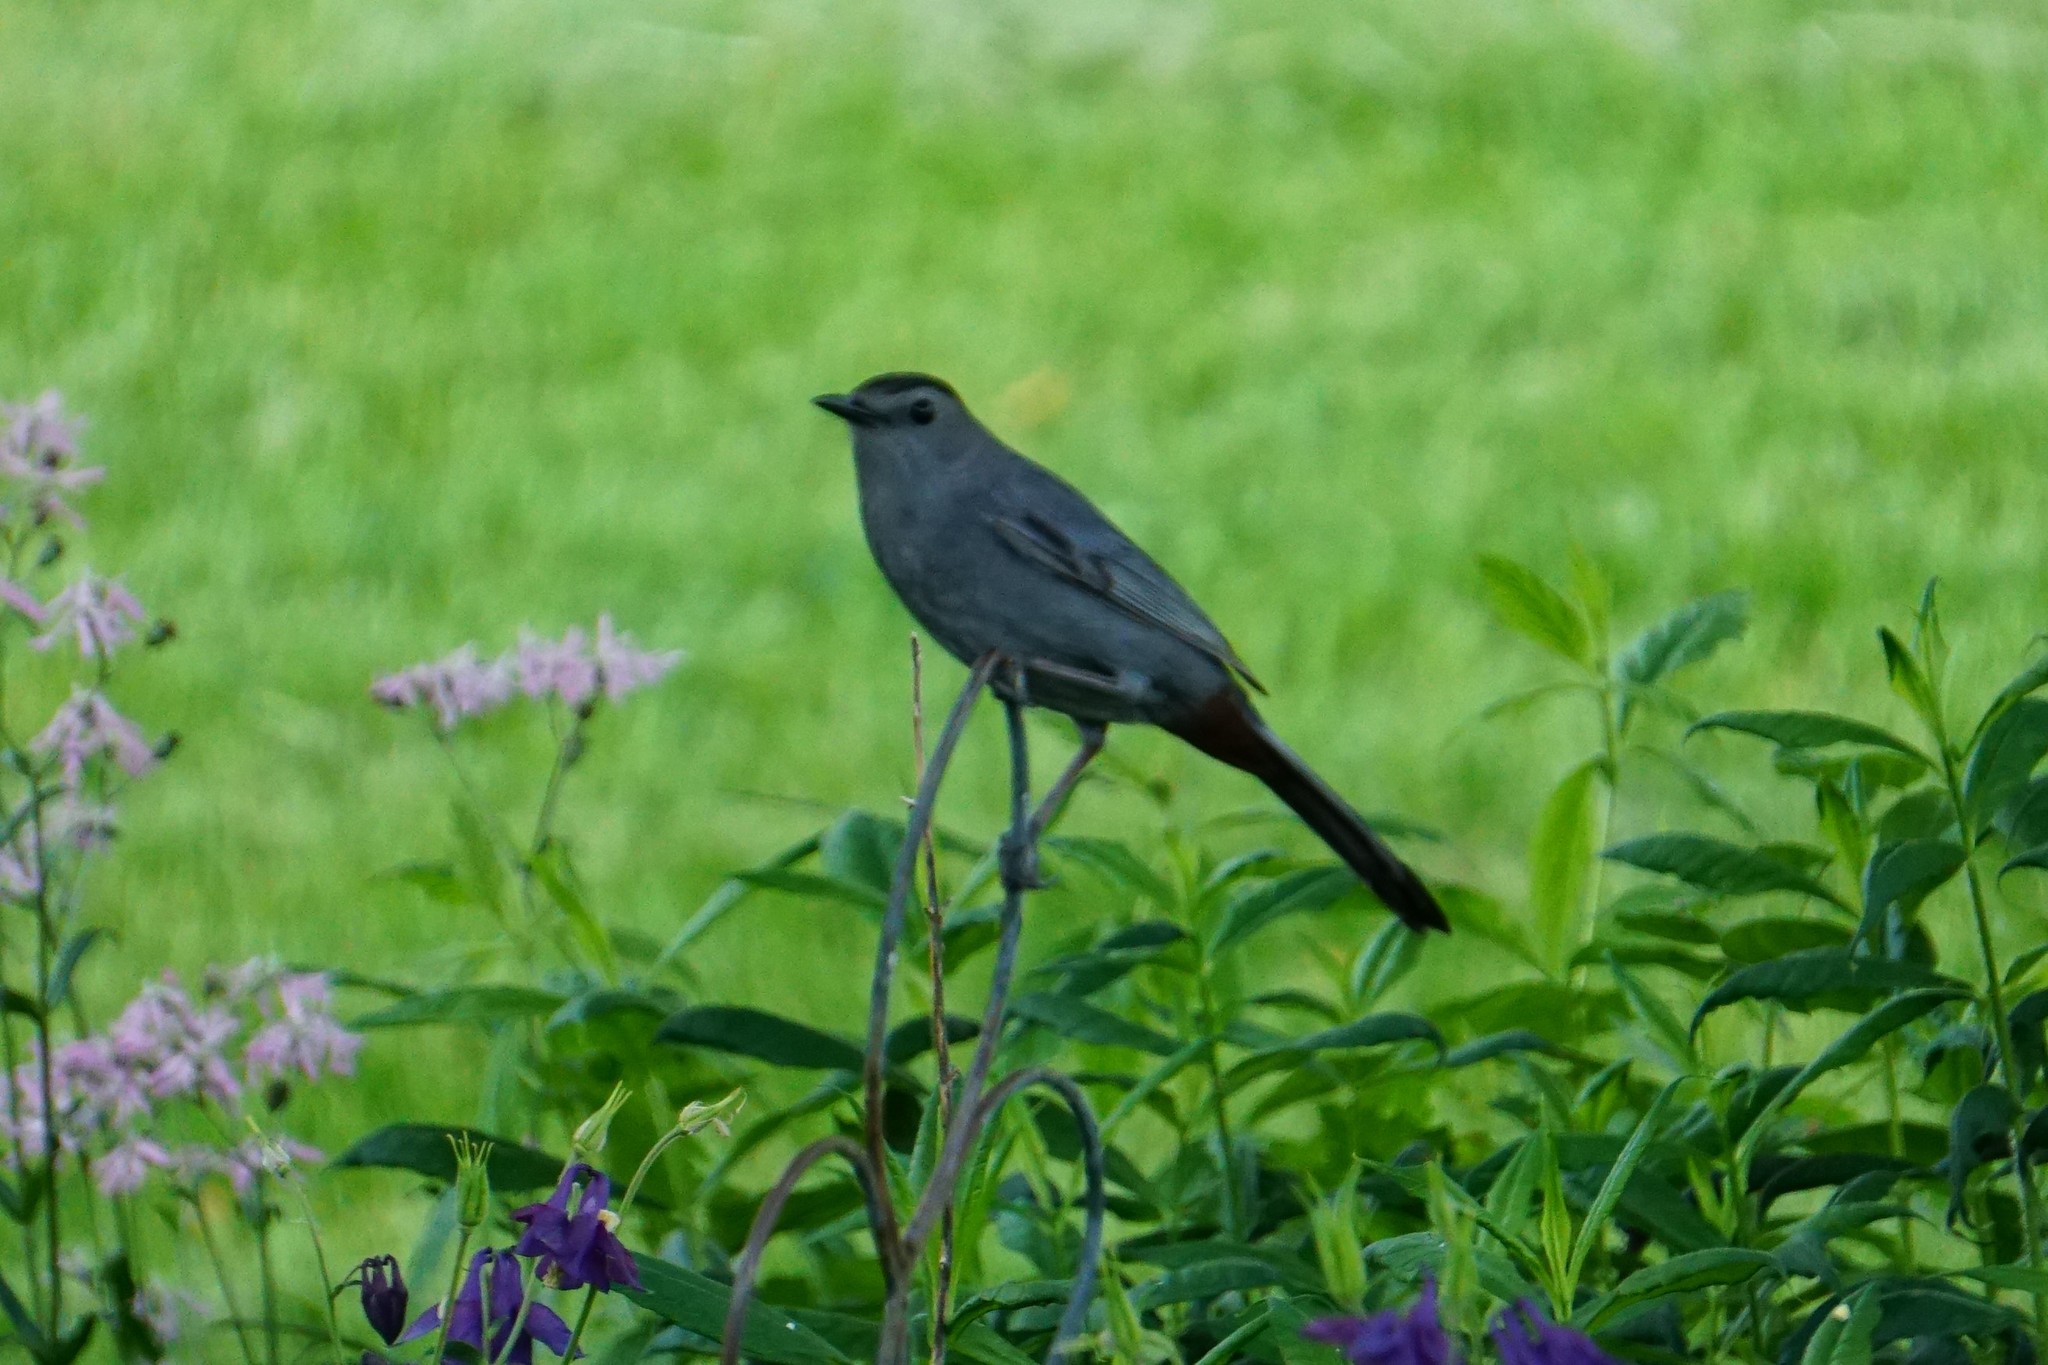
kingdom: Animalia
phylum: Chordata
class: Aves
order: Passeriformes
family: Mimidae
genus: Dumetella
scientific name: Dumetella carolinensis
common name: Gray catbird
